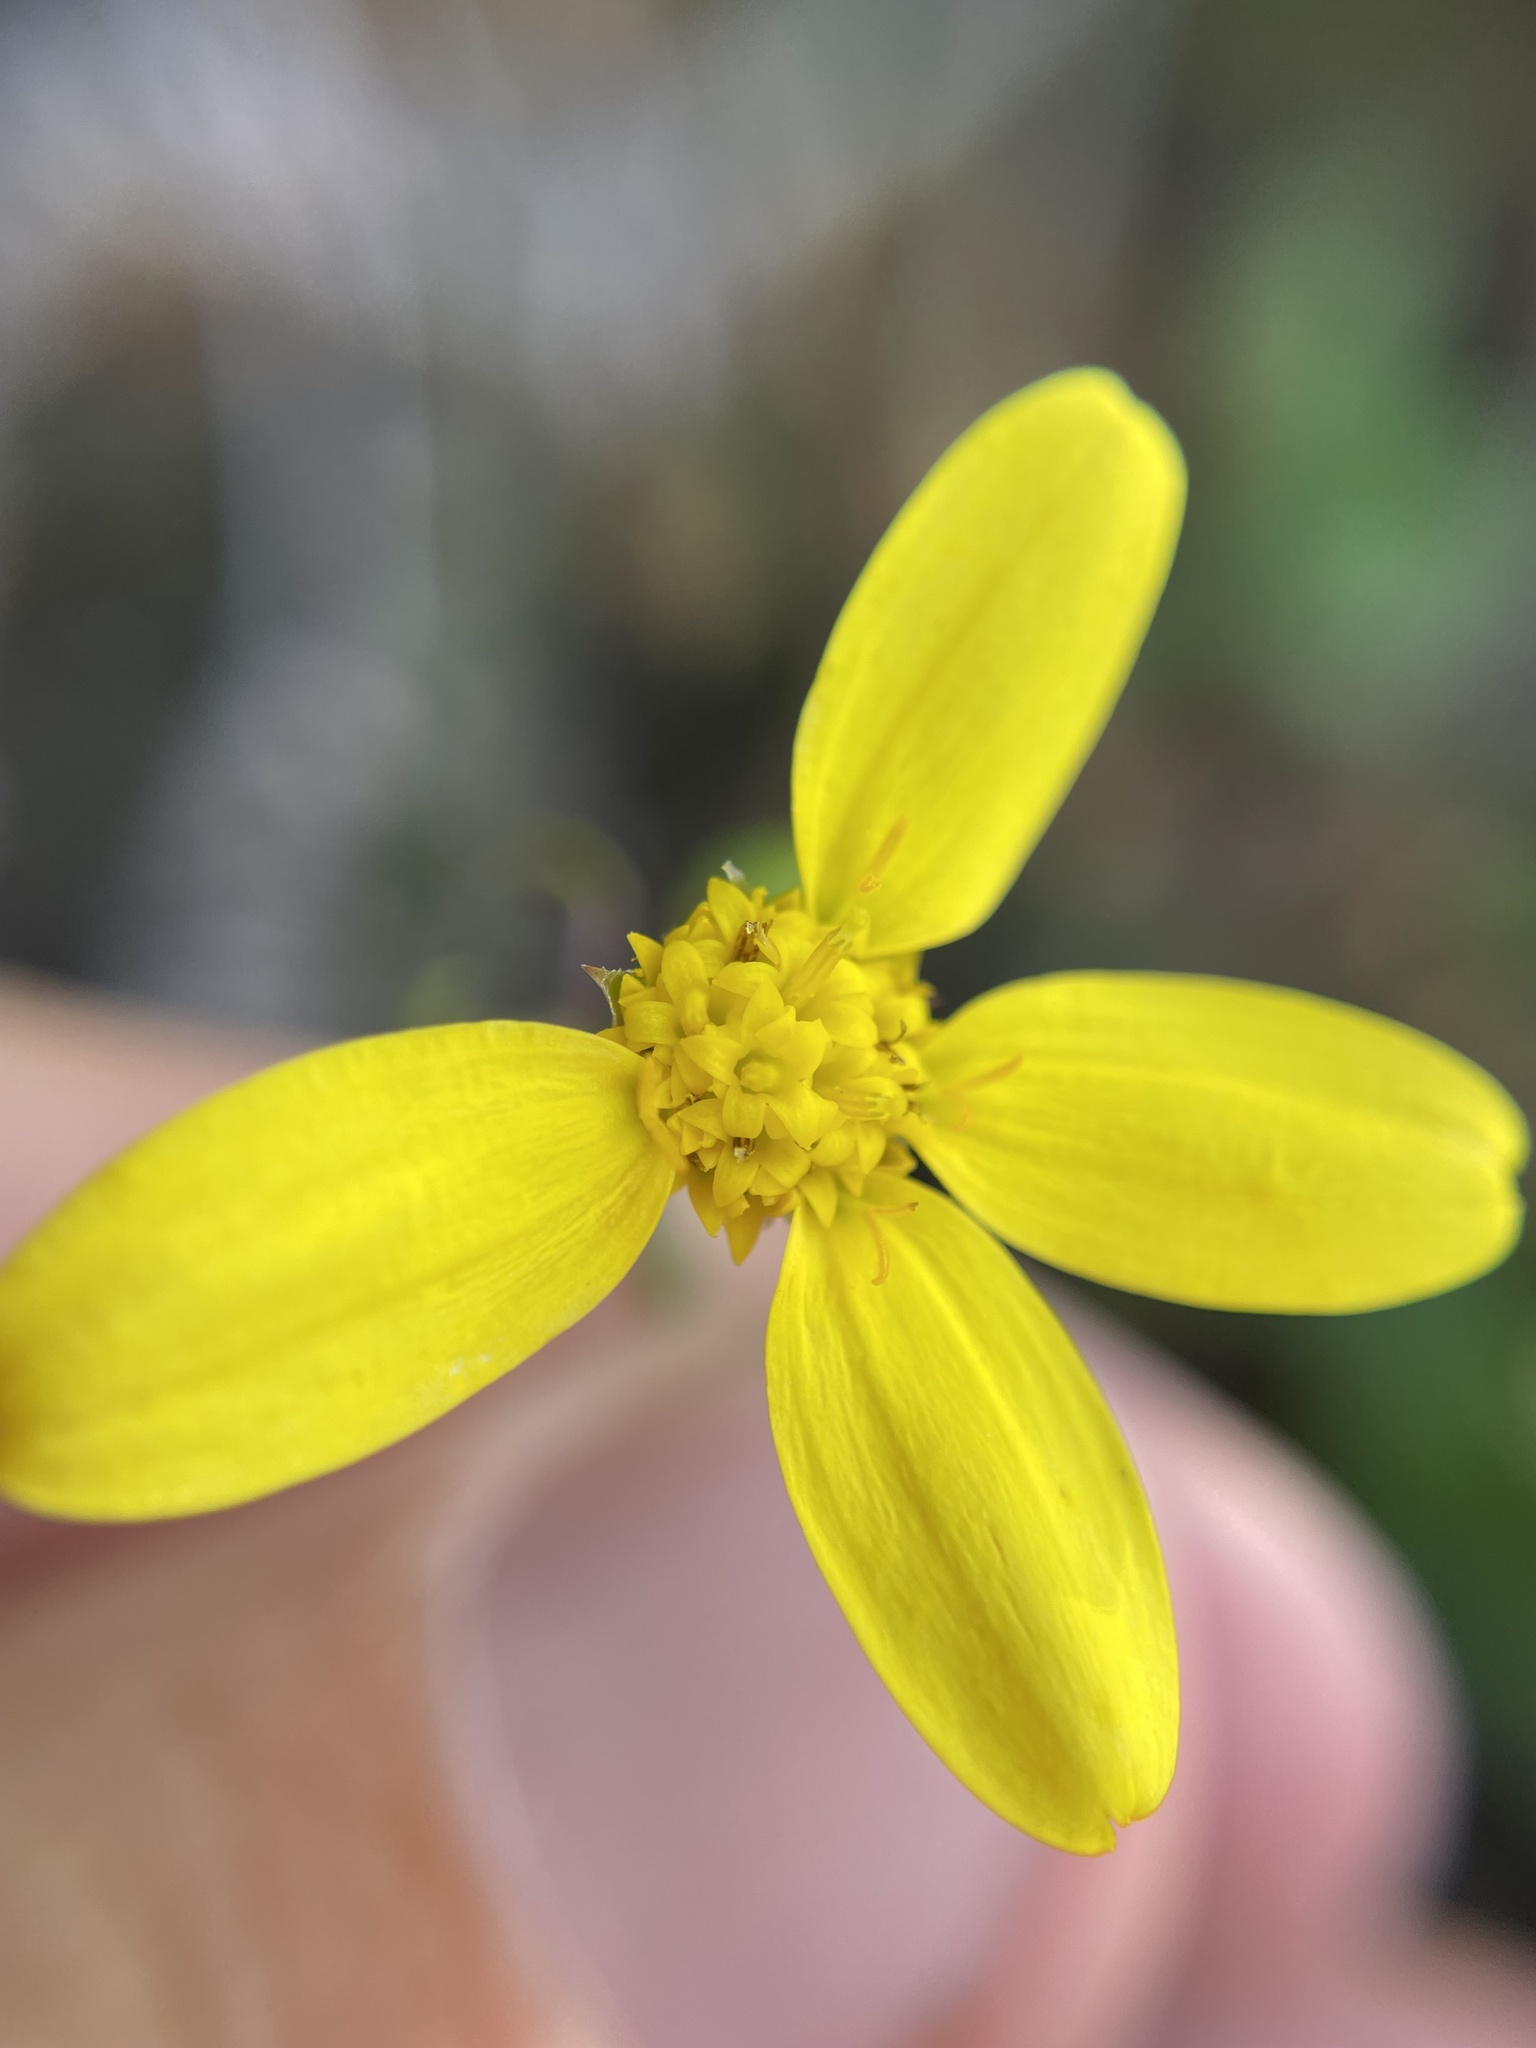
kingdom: Plantae
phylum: Tracheophyta
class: Magnoliopsida
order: Asterales
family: Asteraceae
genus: Osteospermum
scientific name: Osteospermum ciliatum
